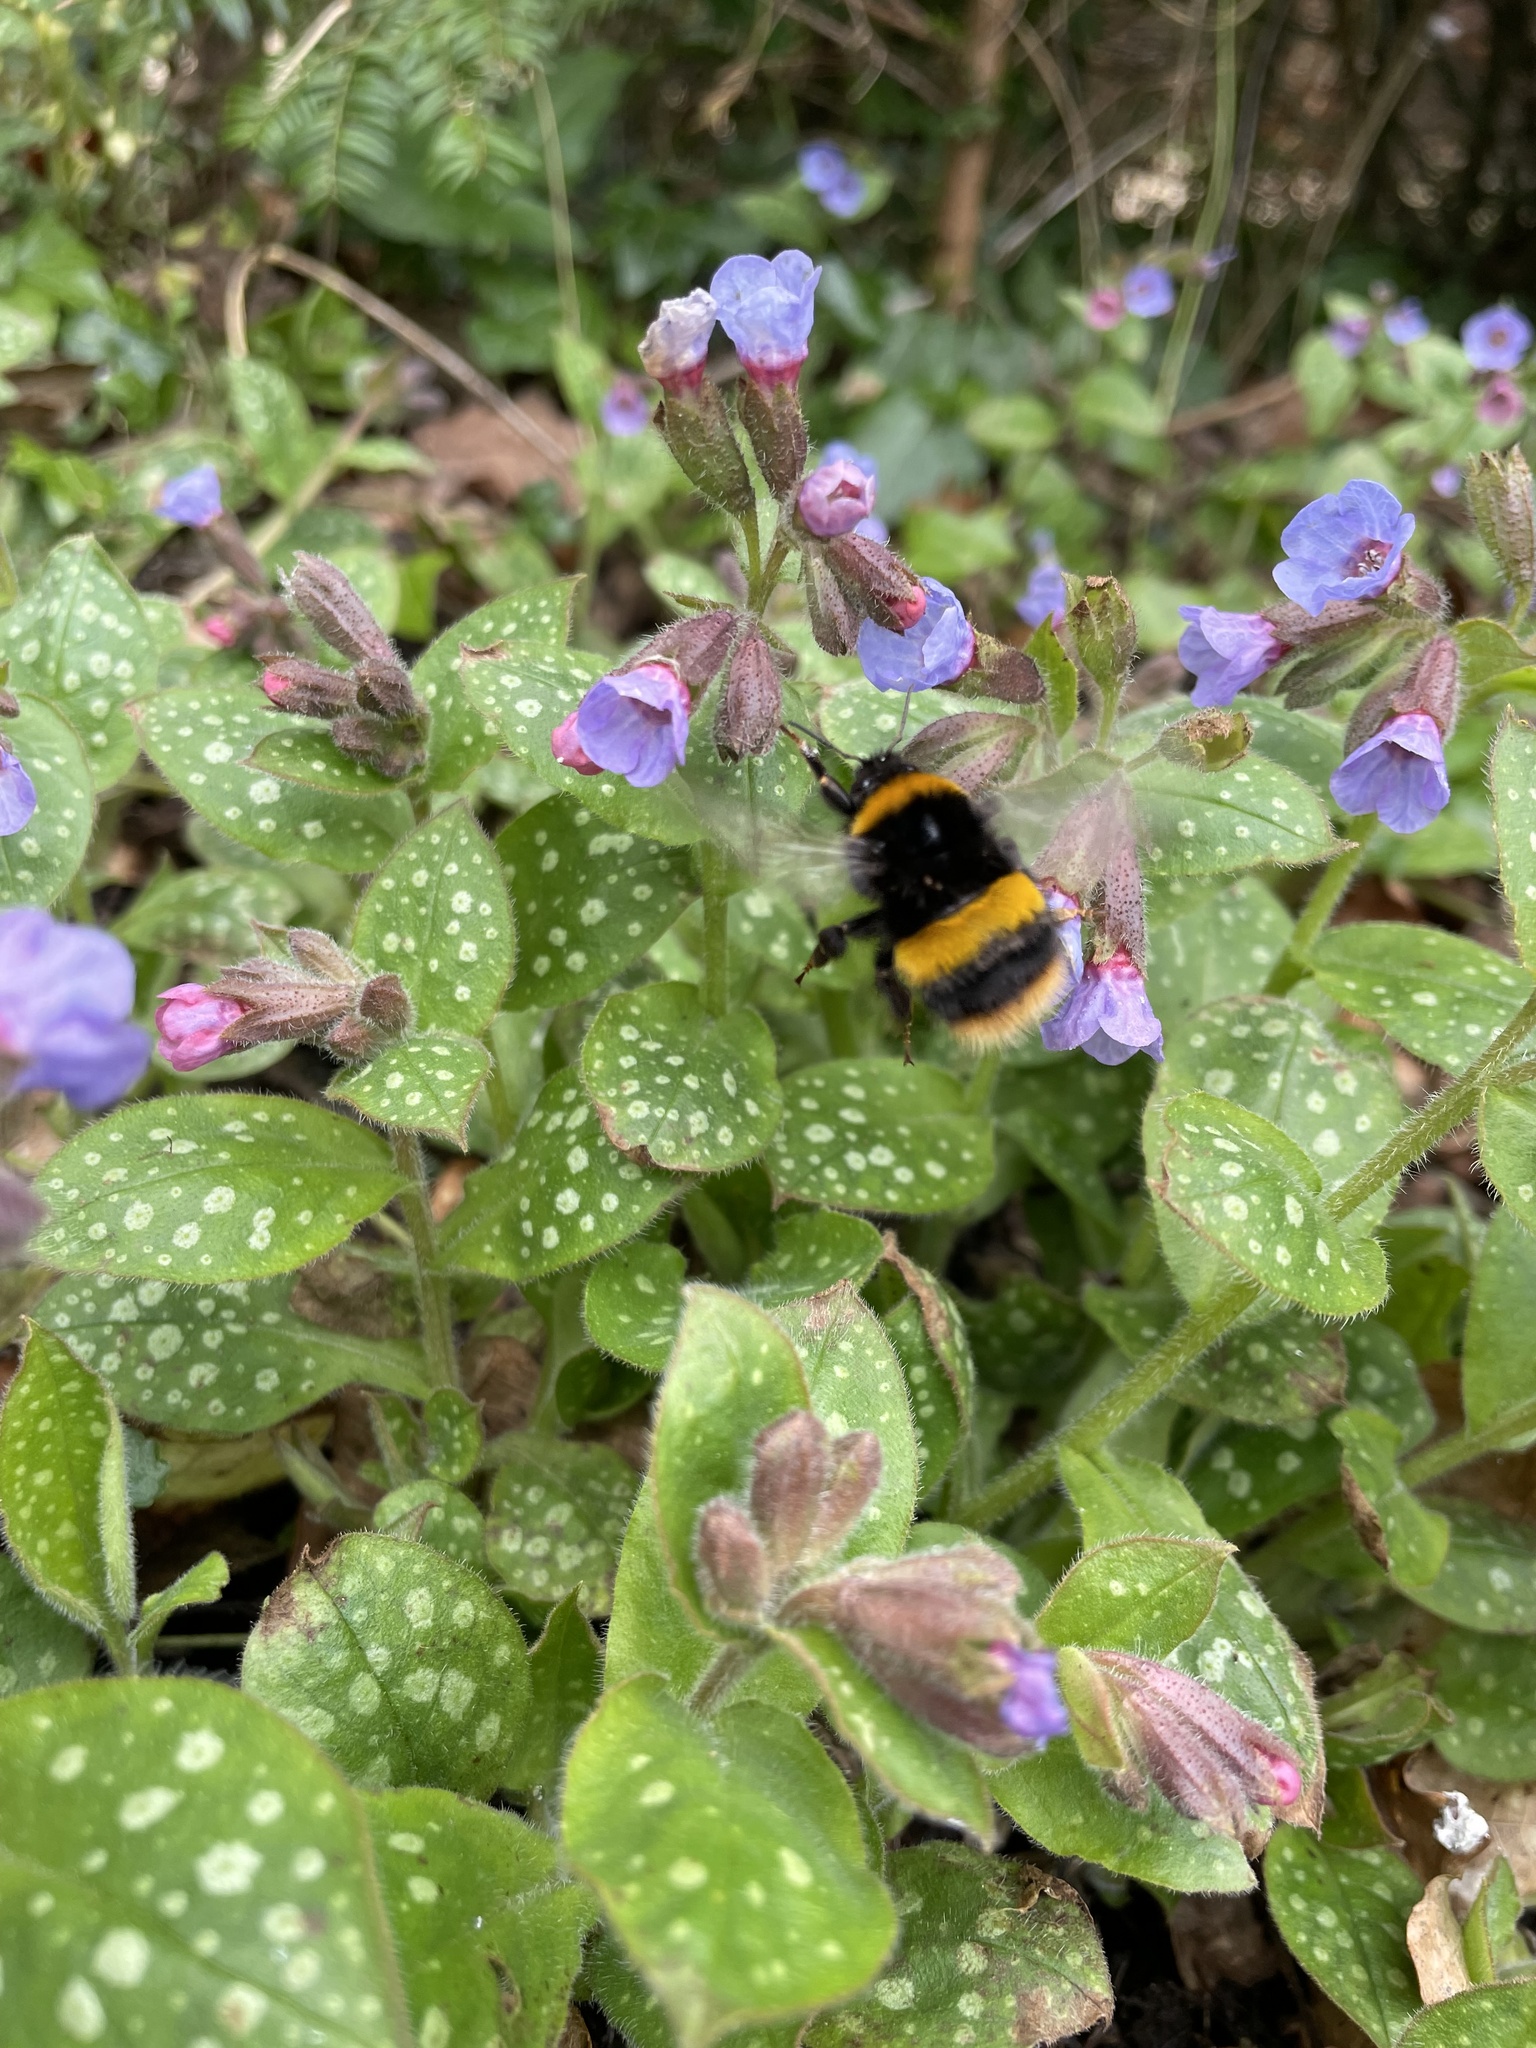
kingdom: Animalia
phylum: Arthropoda
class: Insecta
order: Hymenoptera
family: Apidae
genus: Bombus
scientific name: Bombus terrestris
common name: Buff-tailed bumblebee
